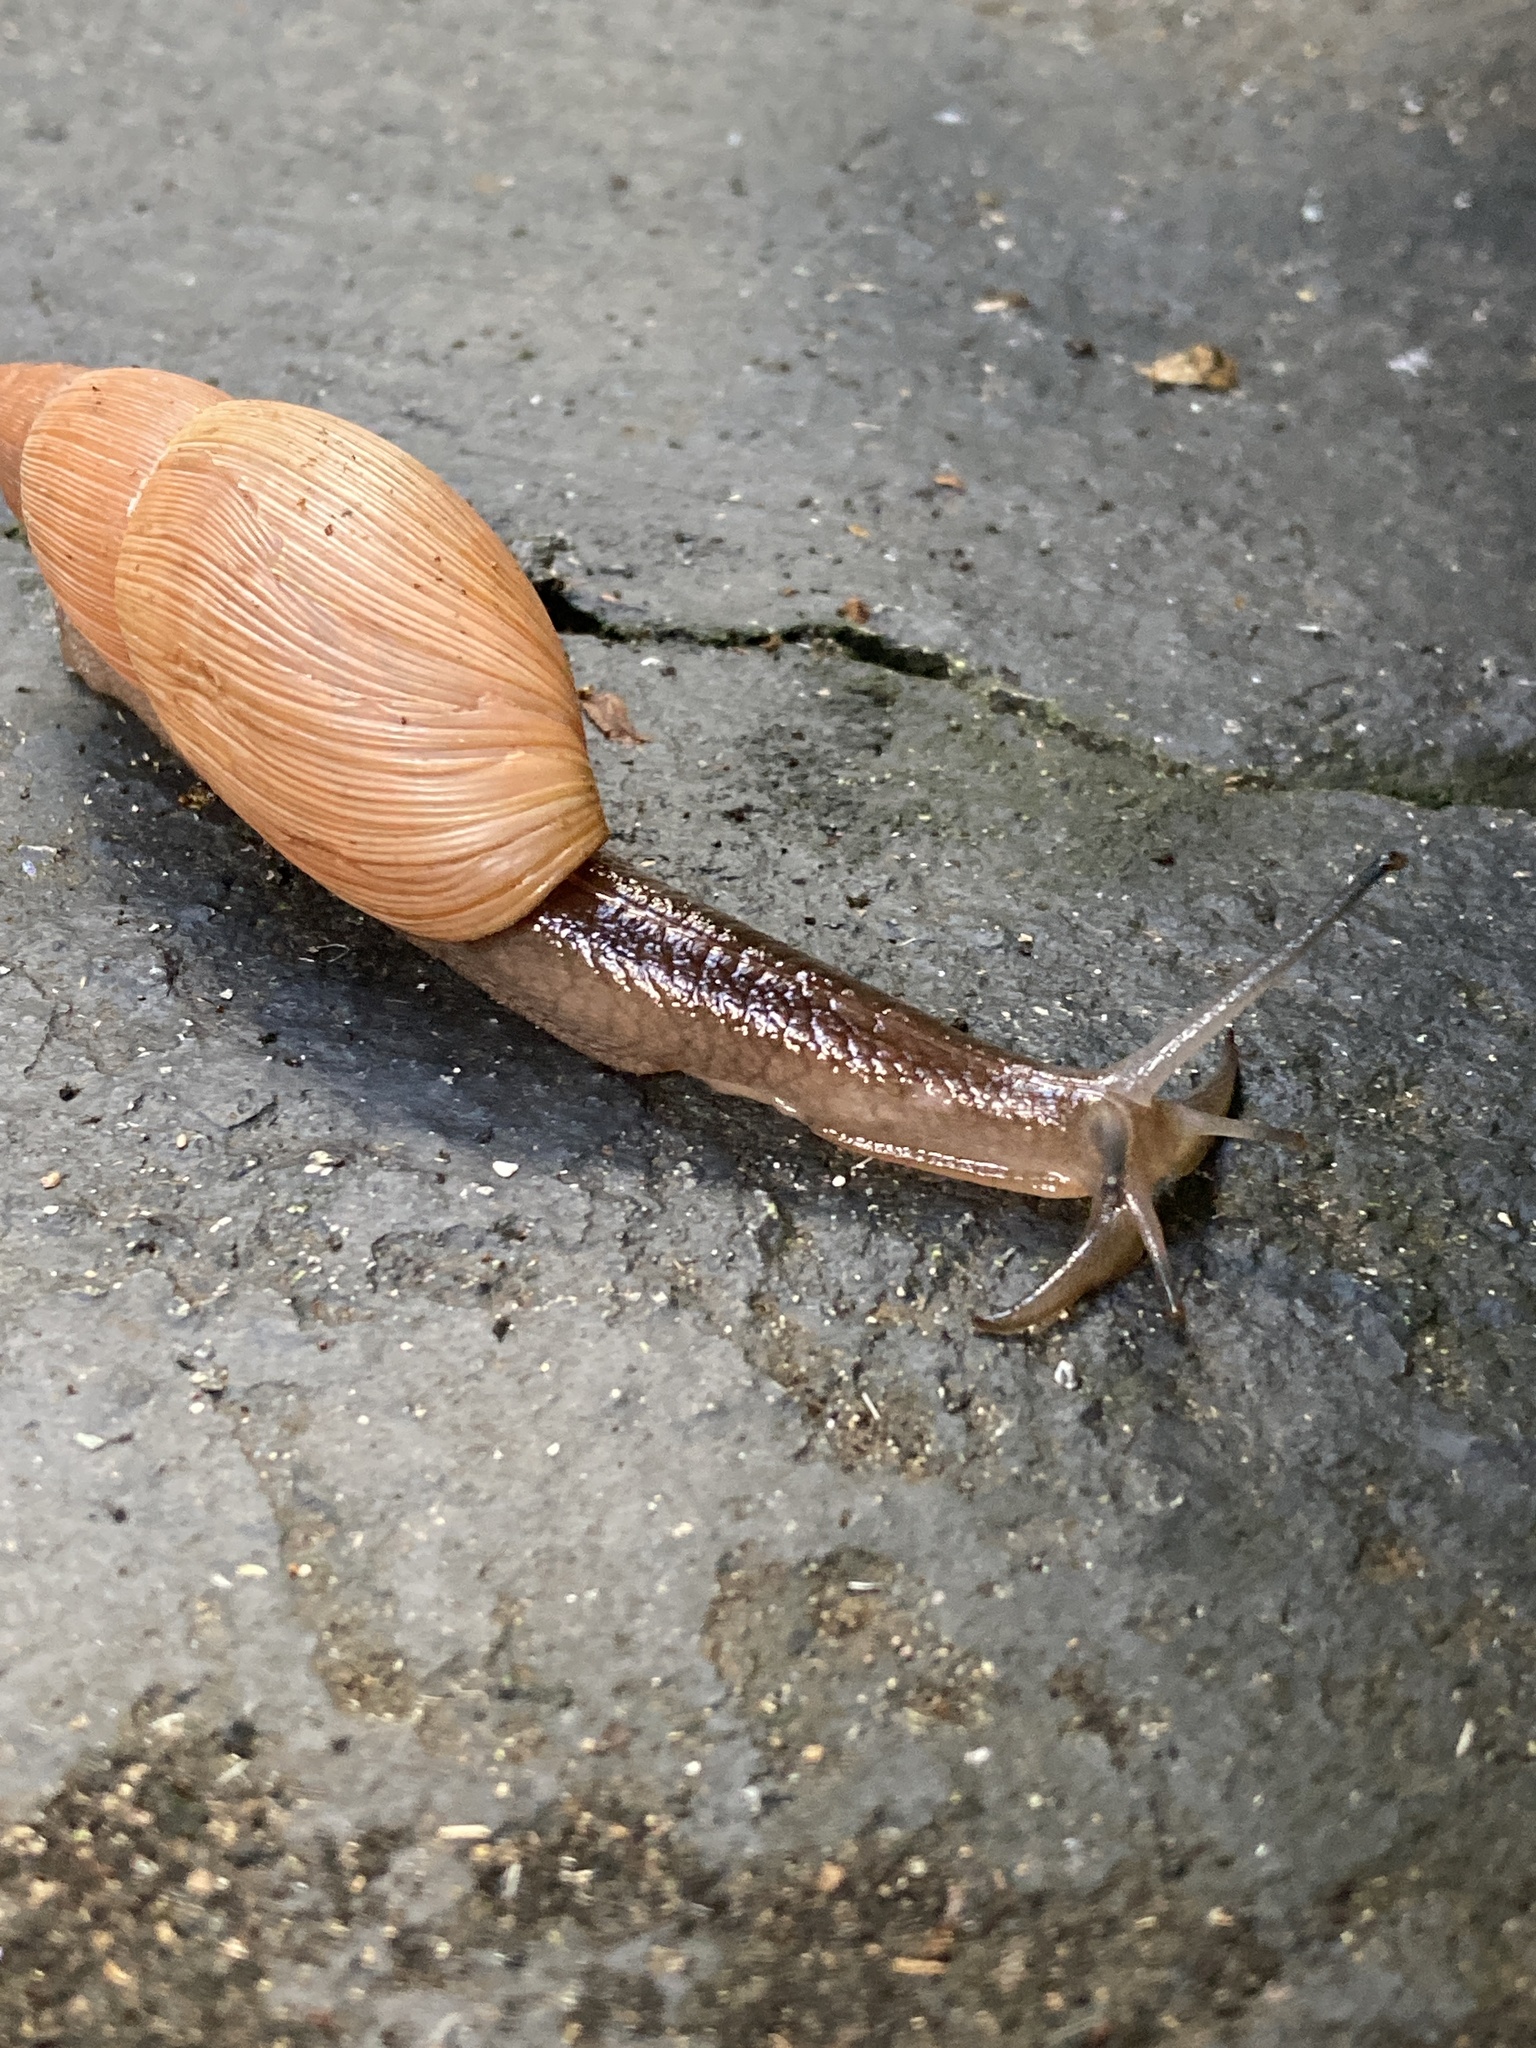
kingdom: Animalia
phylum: Mollusca
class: Gastropoda
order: Stylommatophora
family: Spiraxidae
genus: Euglandina
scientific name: Euglandina rosea
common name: Rosy wolfsnail
